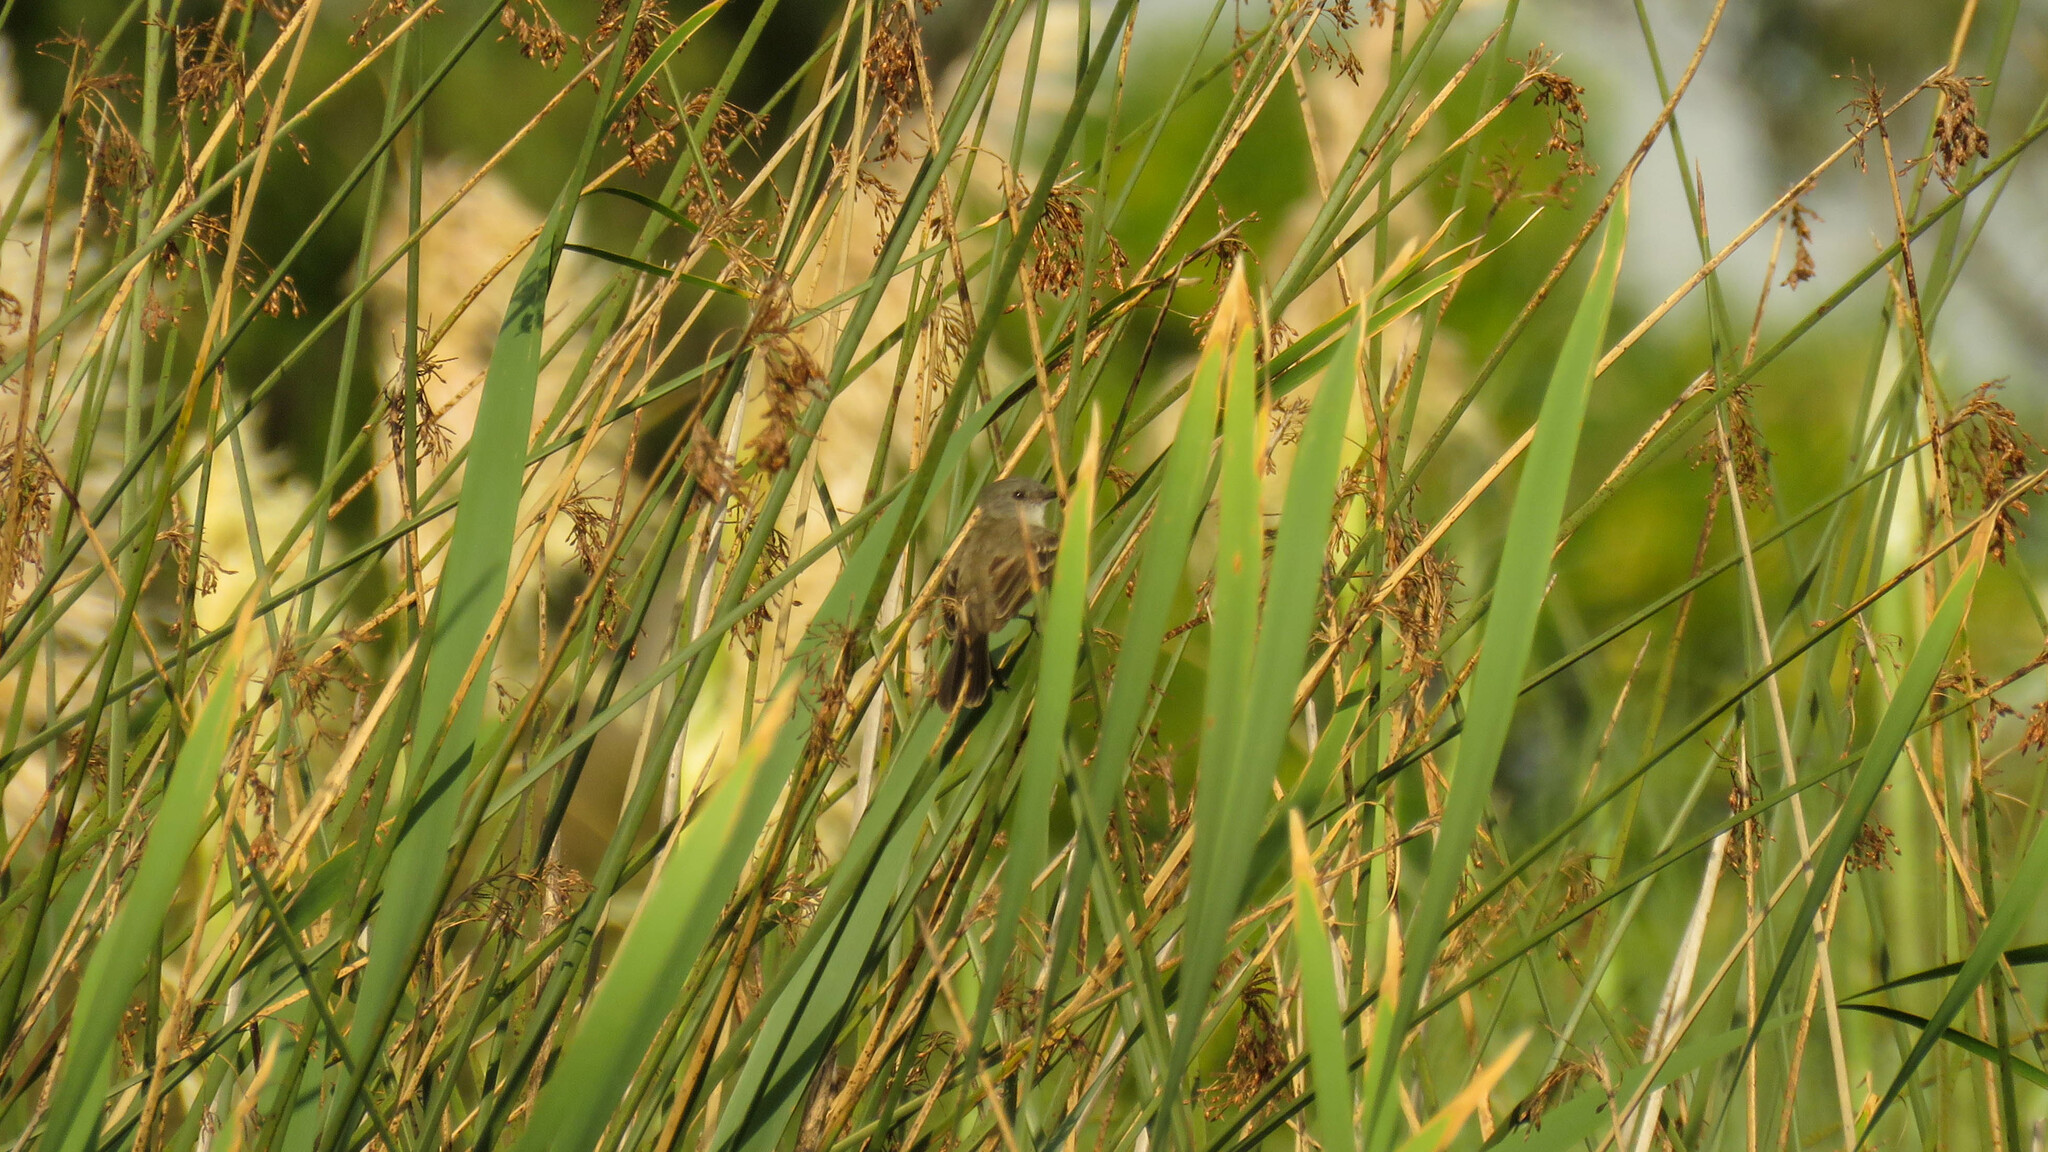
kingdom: Animalia
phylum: Chordata
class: Aves
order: Passeriformes
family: Tyrannidae
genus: Serpophaga
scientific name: Serpophaga nigricans
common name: Sooty tyrannulet
